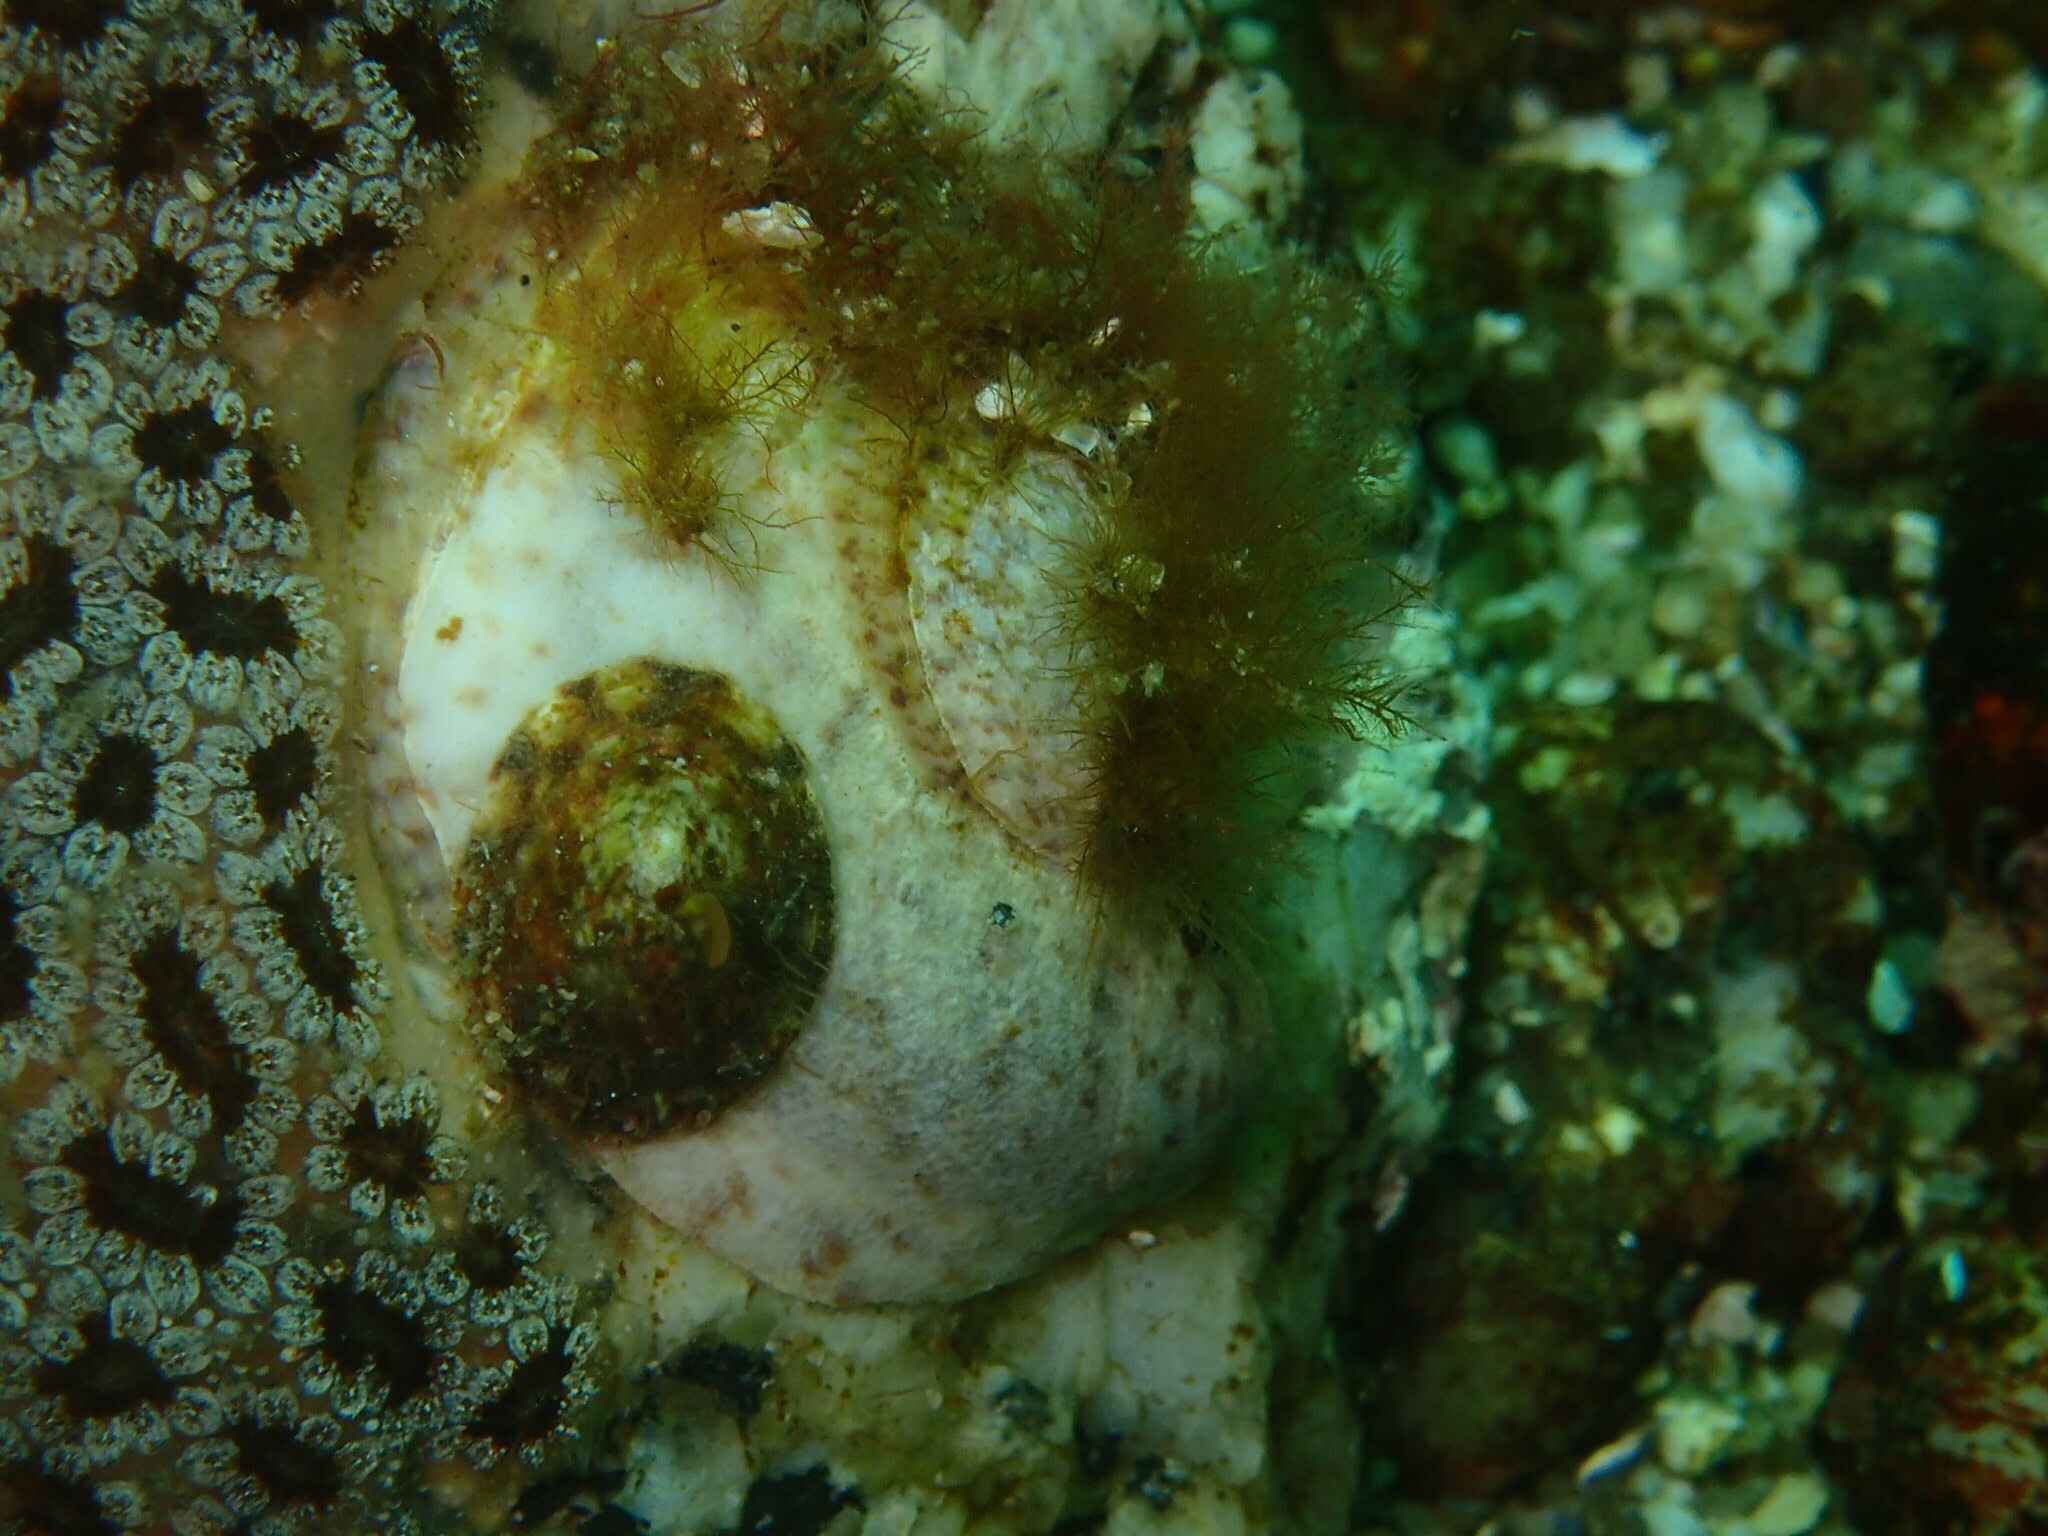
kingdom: Animalia
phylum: Mollusca
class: Gastropoda
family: Lottiidae
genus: Testudinalia
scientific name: Testudinalia testudinalis
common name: Common tortoiseshell limpet
